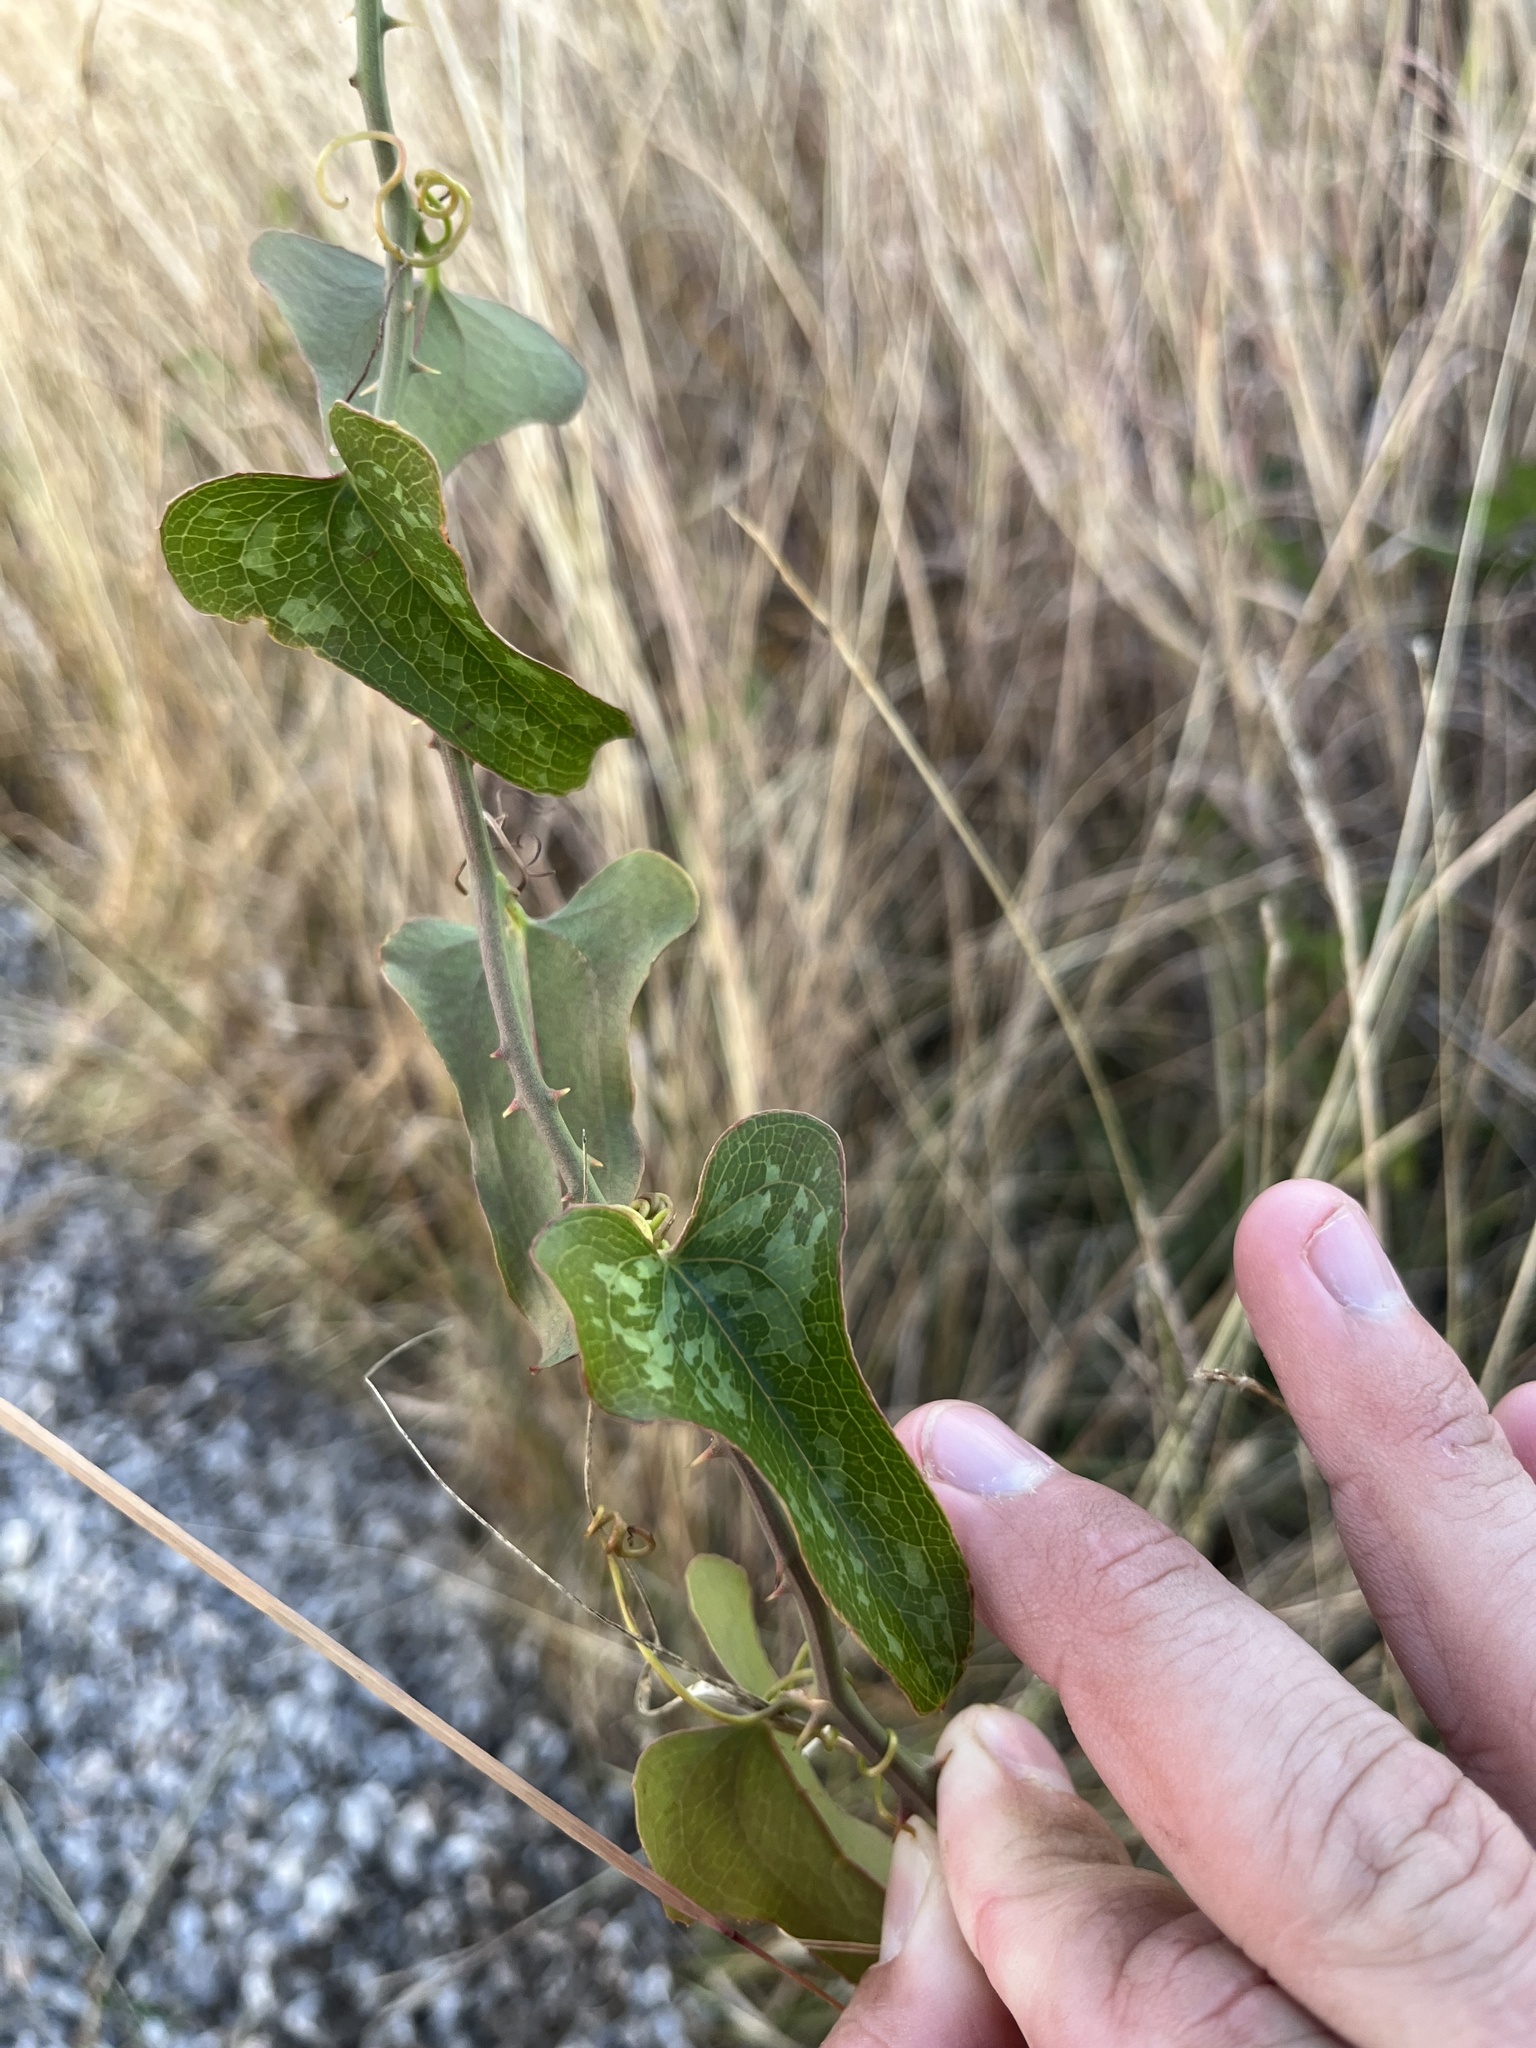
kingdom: Plantae
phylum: Tracheophyta
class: Liliopsida
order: Liliales
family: Smilacaceae
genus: Smilax
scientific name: Smilax bona-nox
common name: Catbrier
